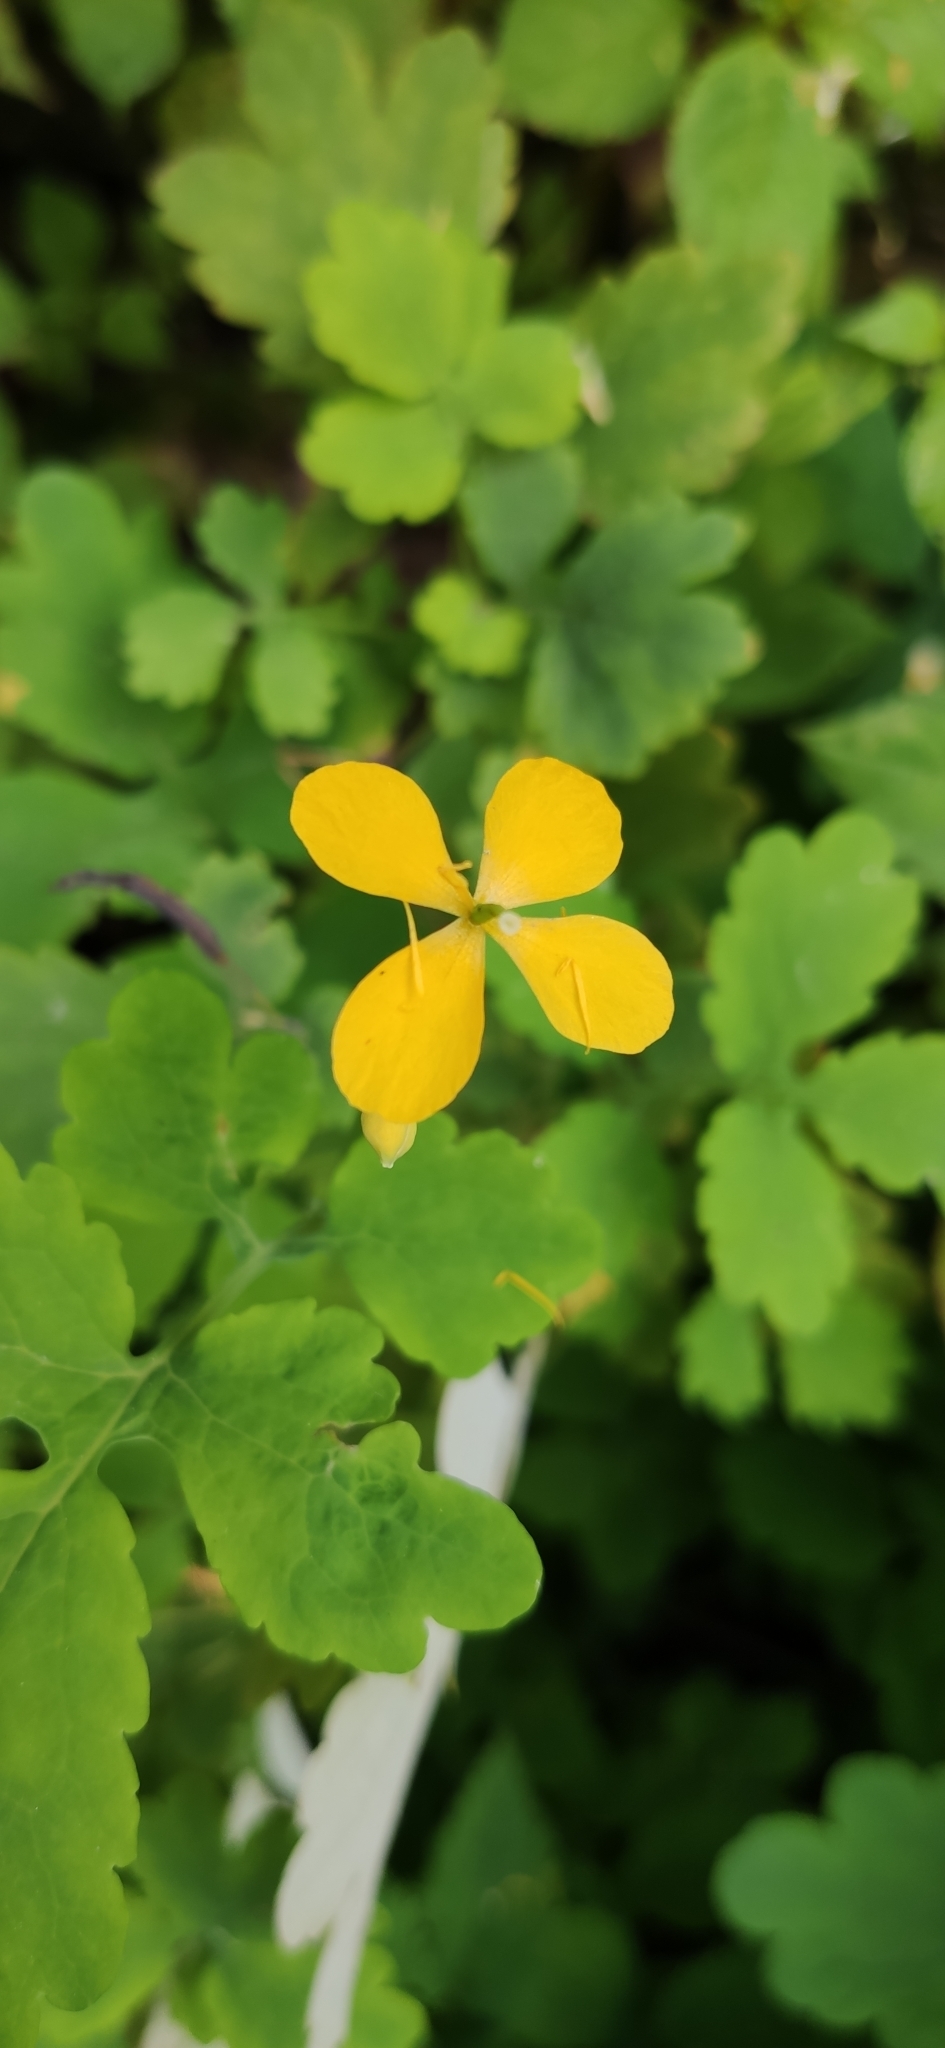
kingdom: Plantae
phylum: Tracheophyta
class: Magnoliopsida
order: Ranunculales
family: Papaveraceae
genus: Chelidonium
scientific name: Chelidonium majus
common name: Greater celandine
